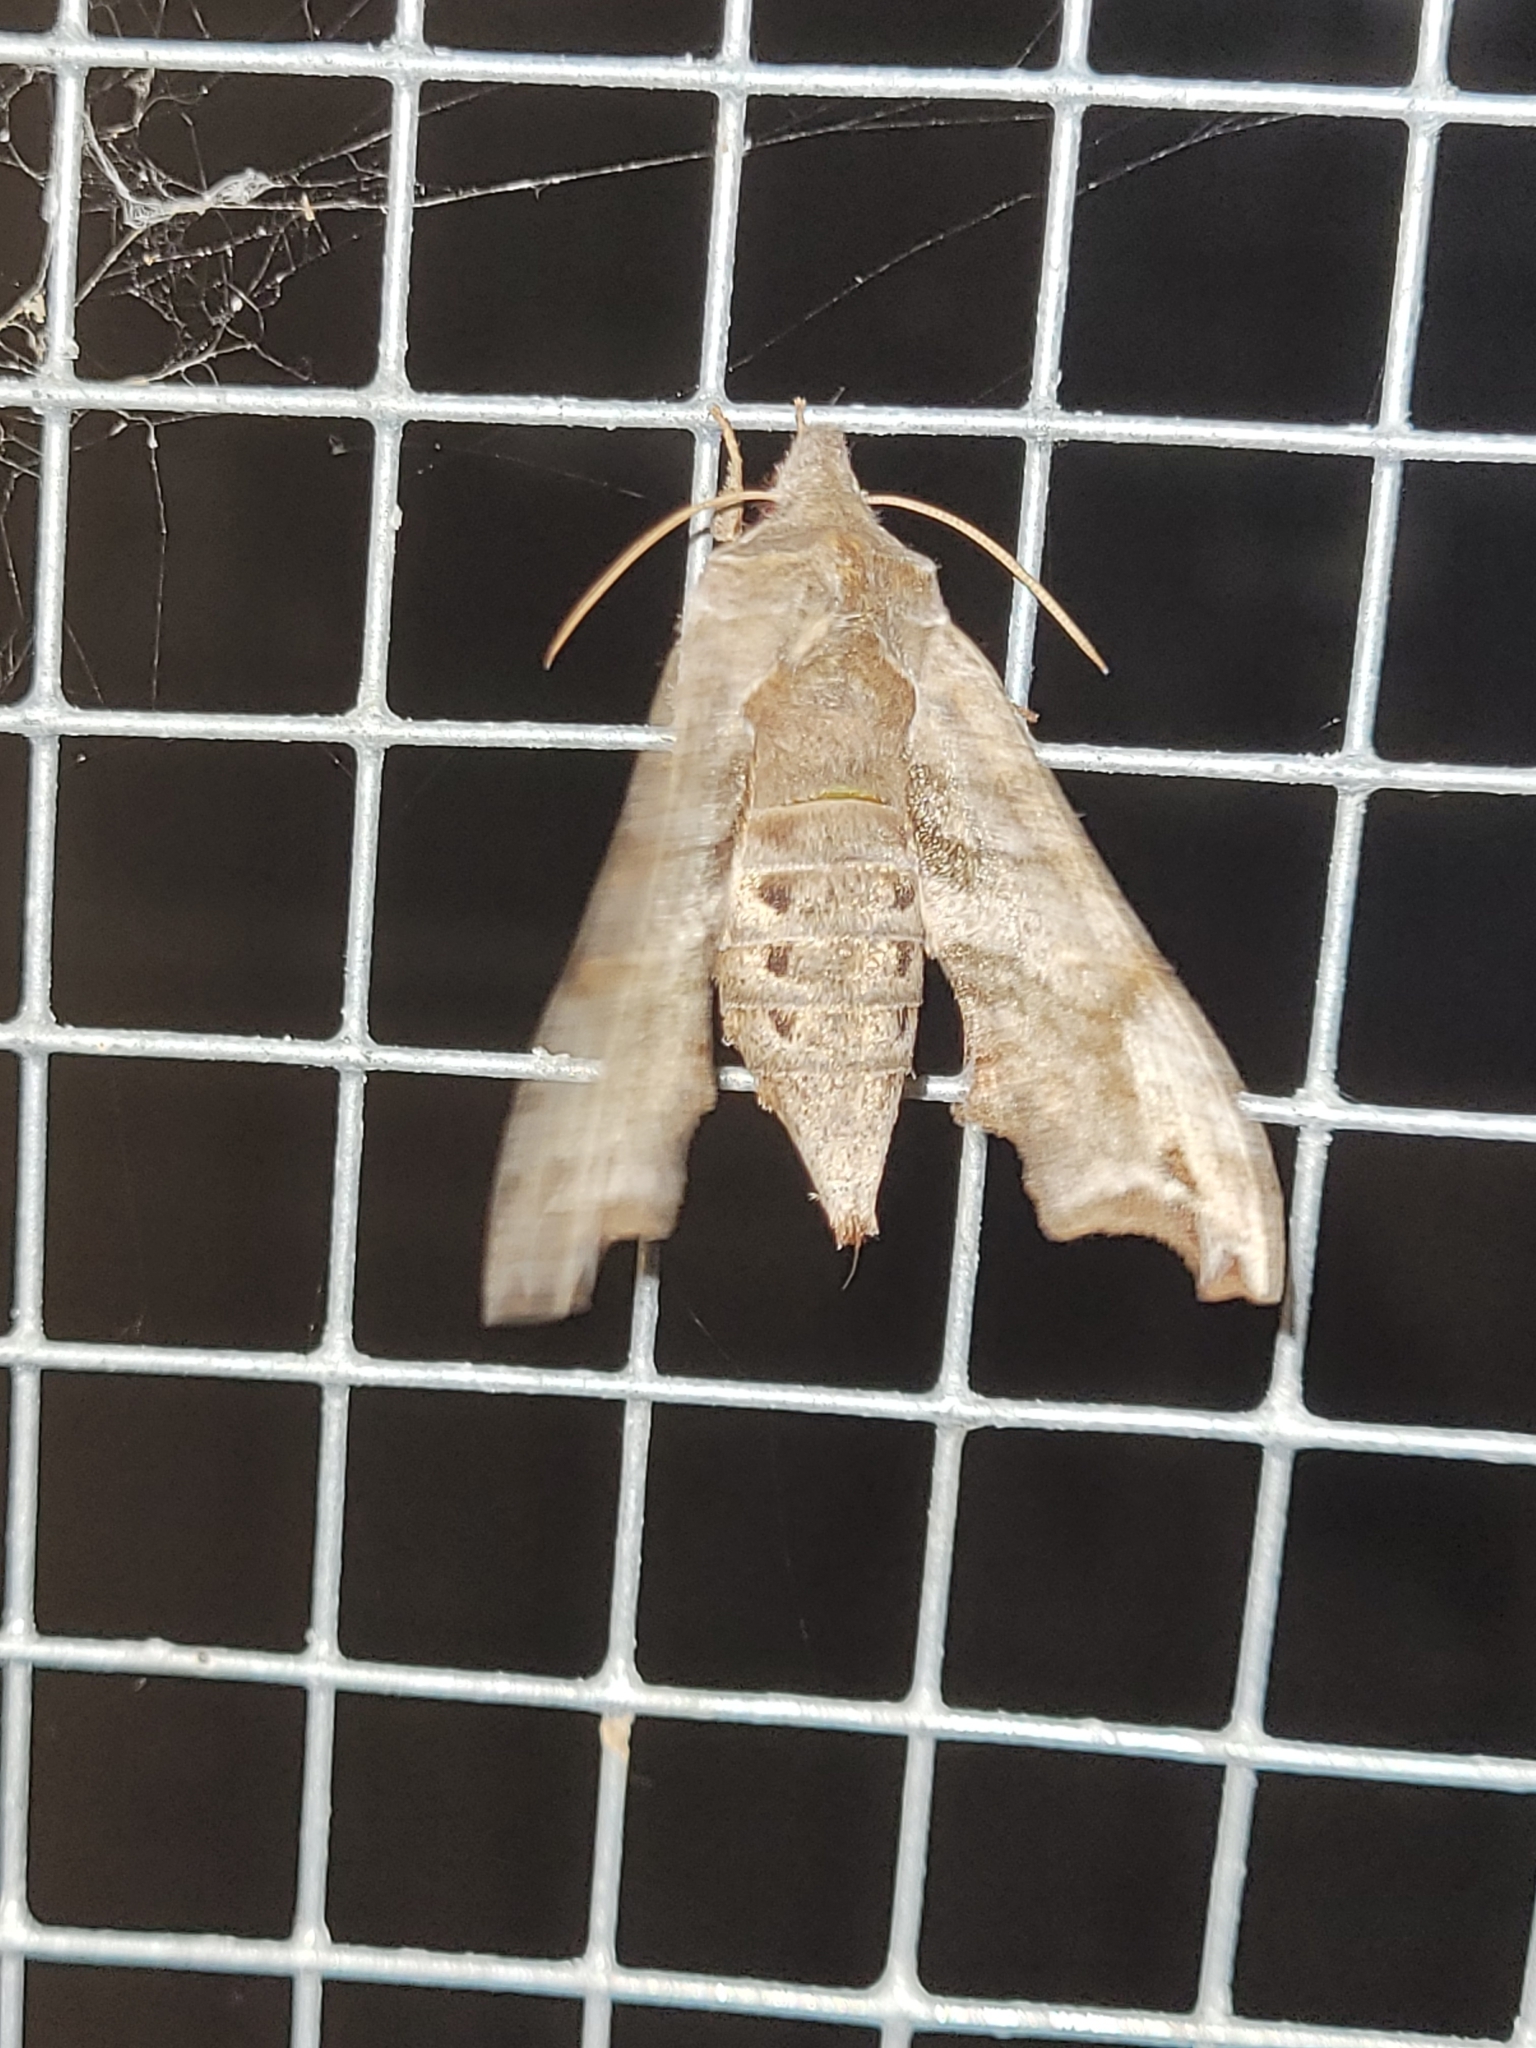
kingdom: Animalia
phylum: Arthropoda
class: Insecta
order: Lepidoptera
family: Sphingidae
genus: Deidamia
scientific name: Deidamia inscriptum
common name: Lettered sphinx
